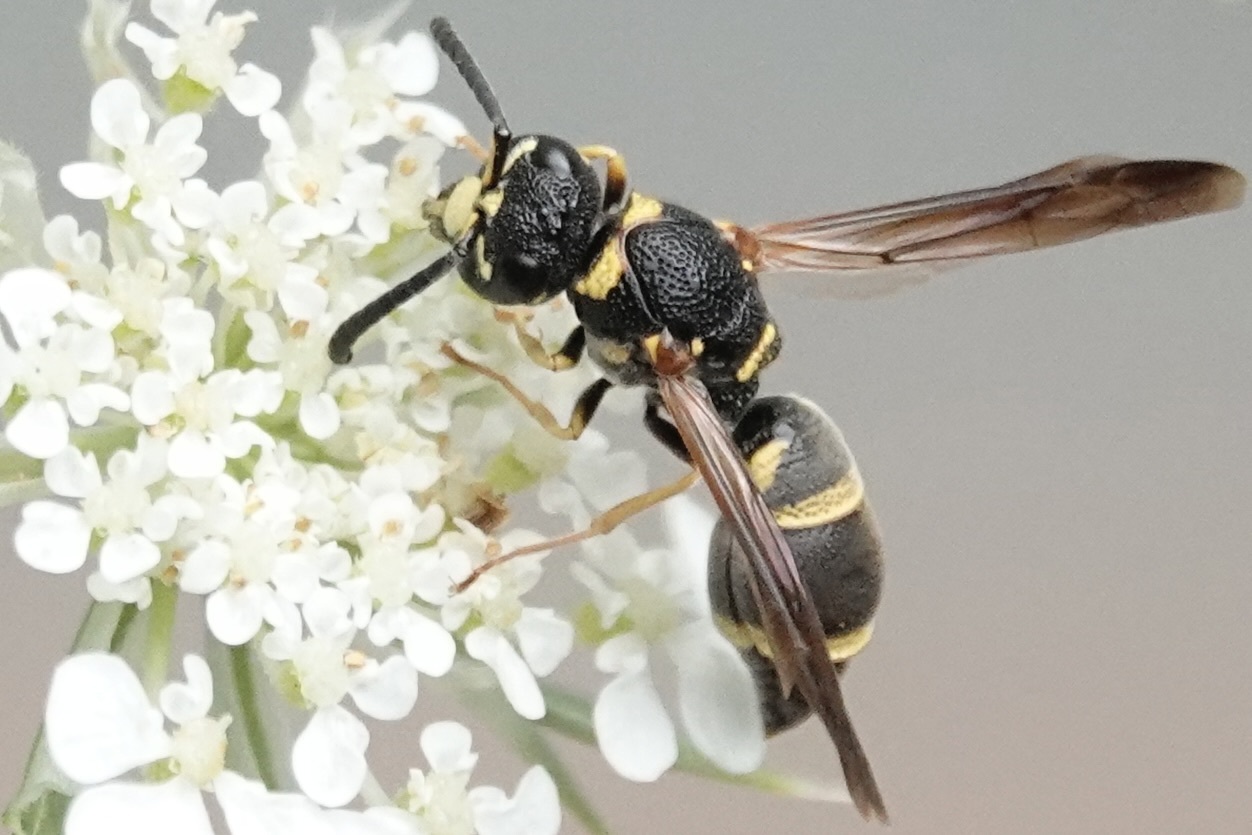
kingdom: Animalia
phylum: Arthropoda
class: Insecta
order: Hymenoptera
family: Eumenidae
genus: Parancistrocerus
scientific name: Parancistrocerus fulvipes
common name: Potter wasp
